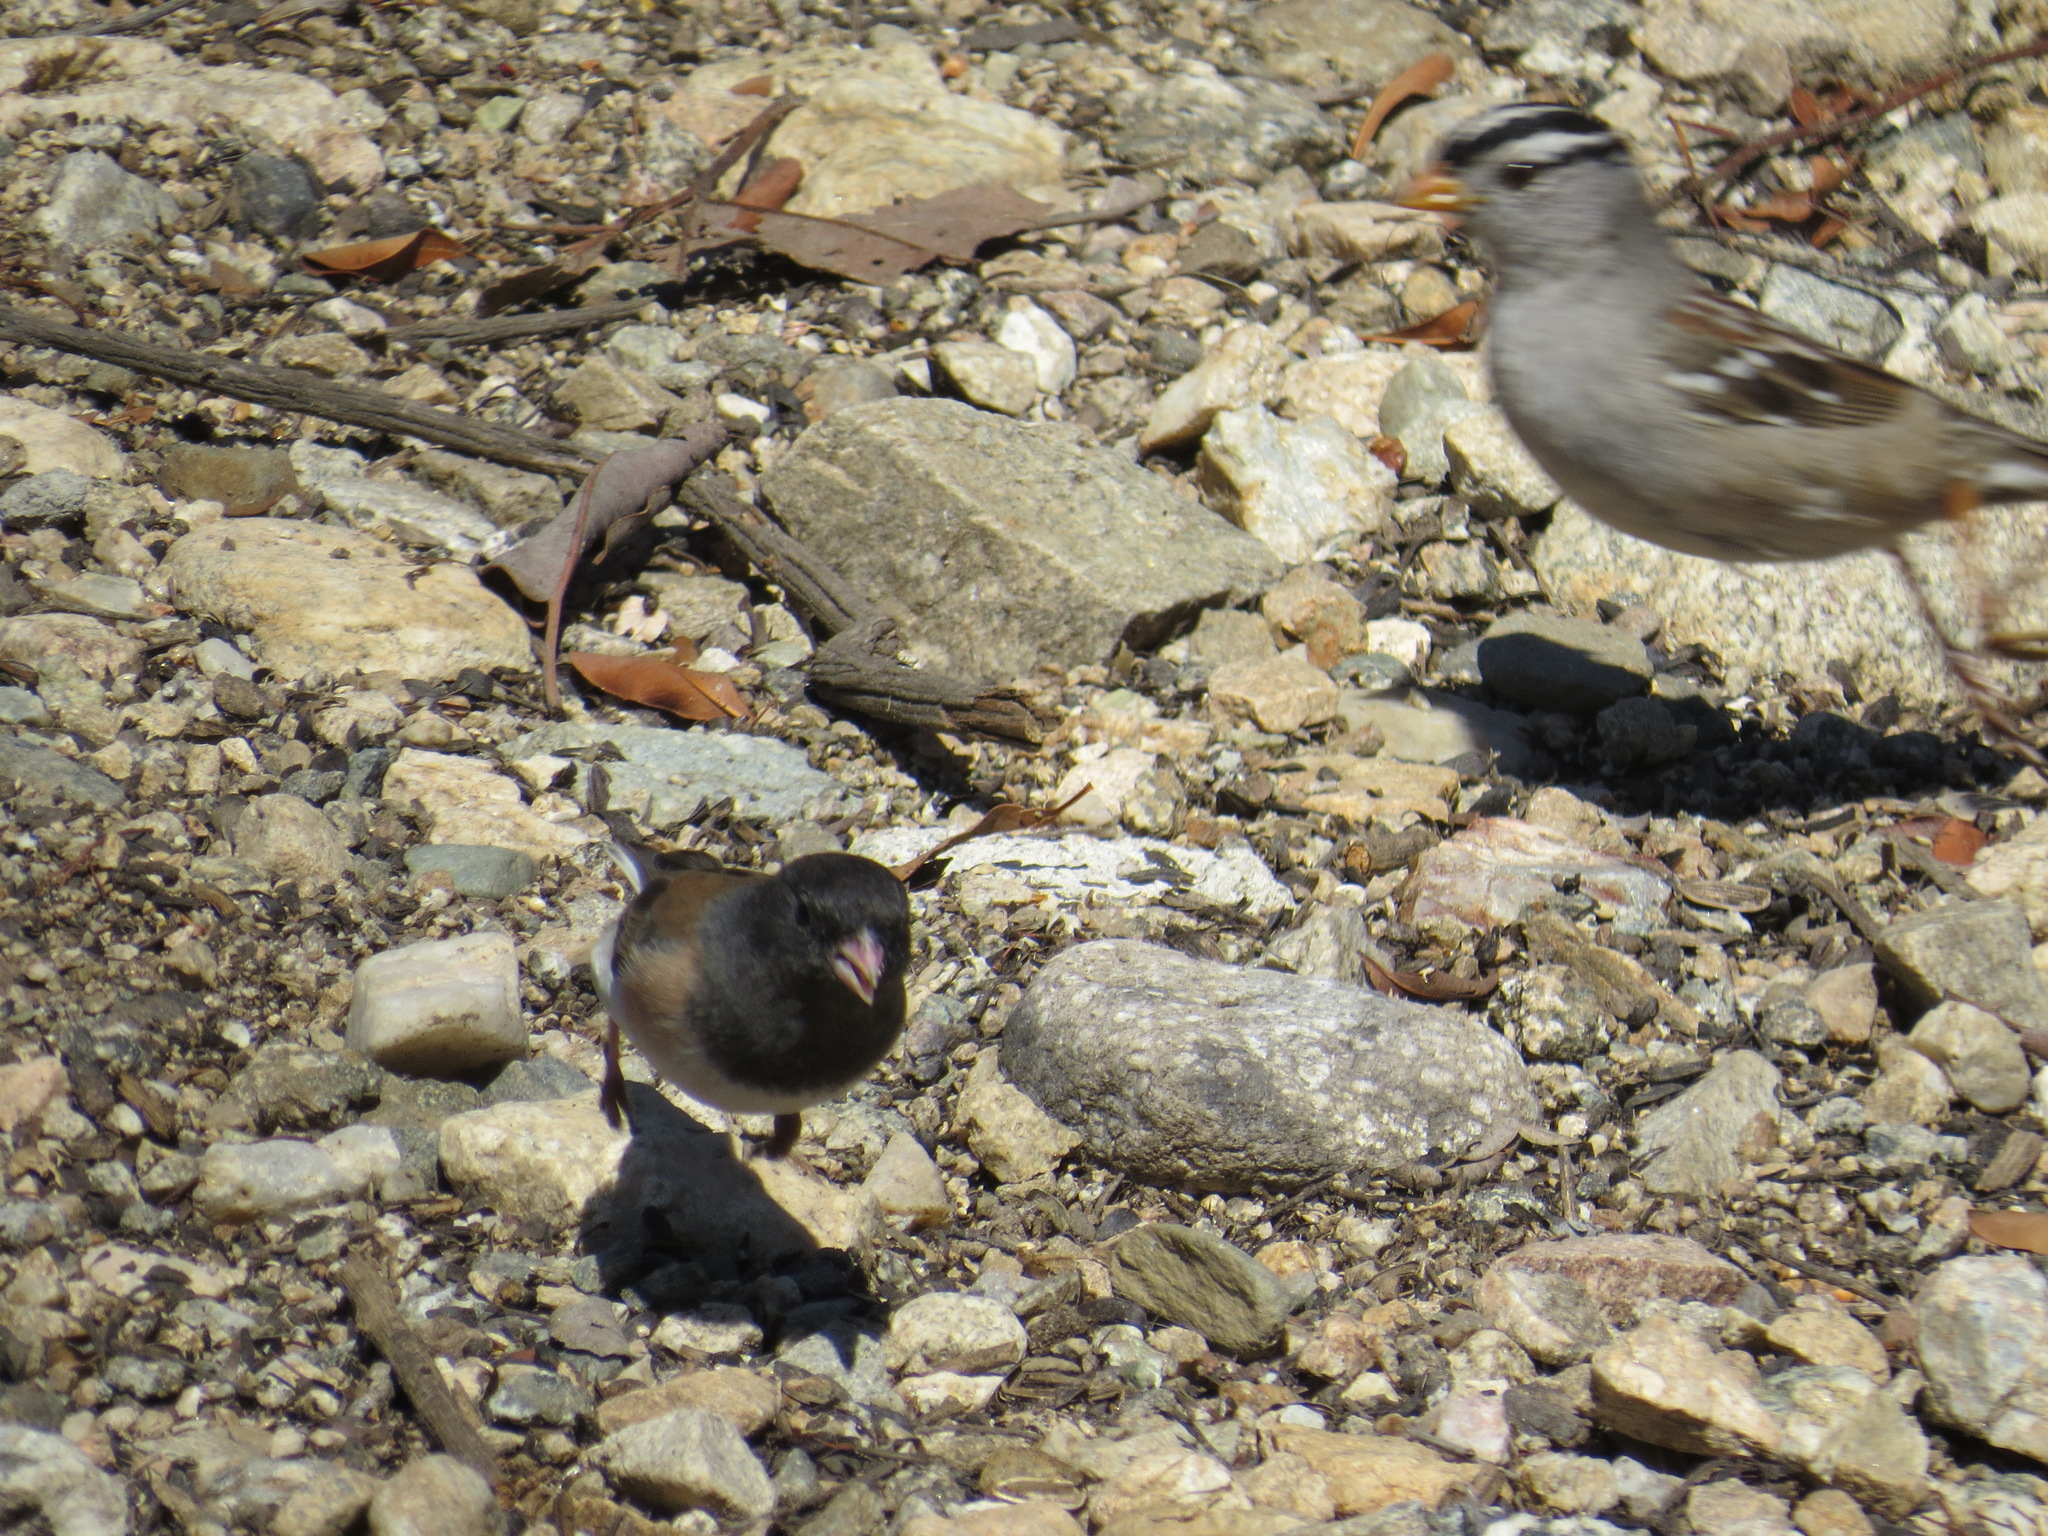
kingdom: Animalia
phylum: Chordata
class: Aves
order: Passeriformes
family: Passerellidae
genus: Junco
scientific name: Junco hyemalis
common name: Dark-eyed junco
